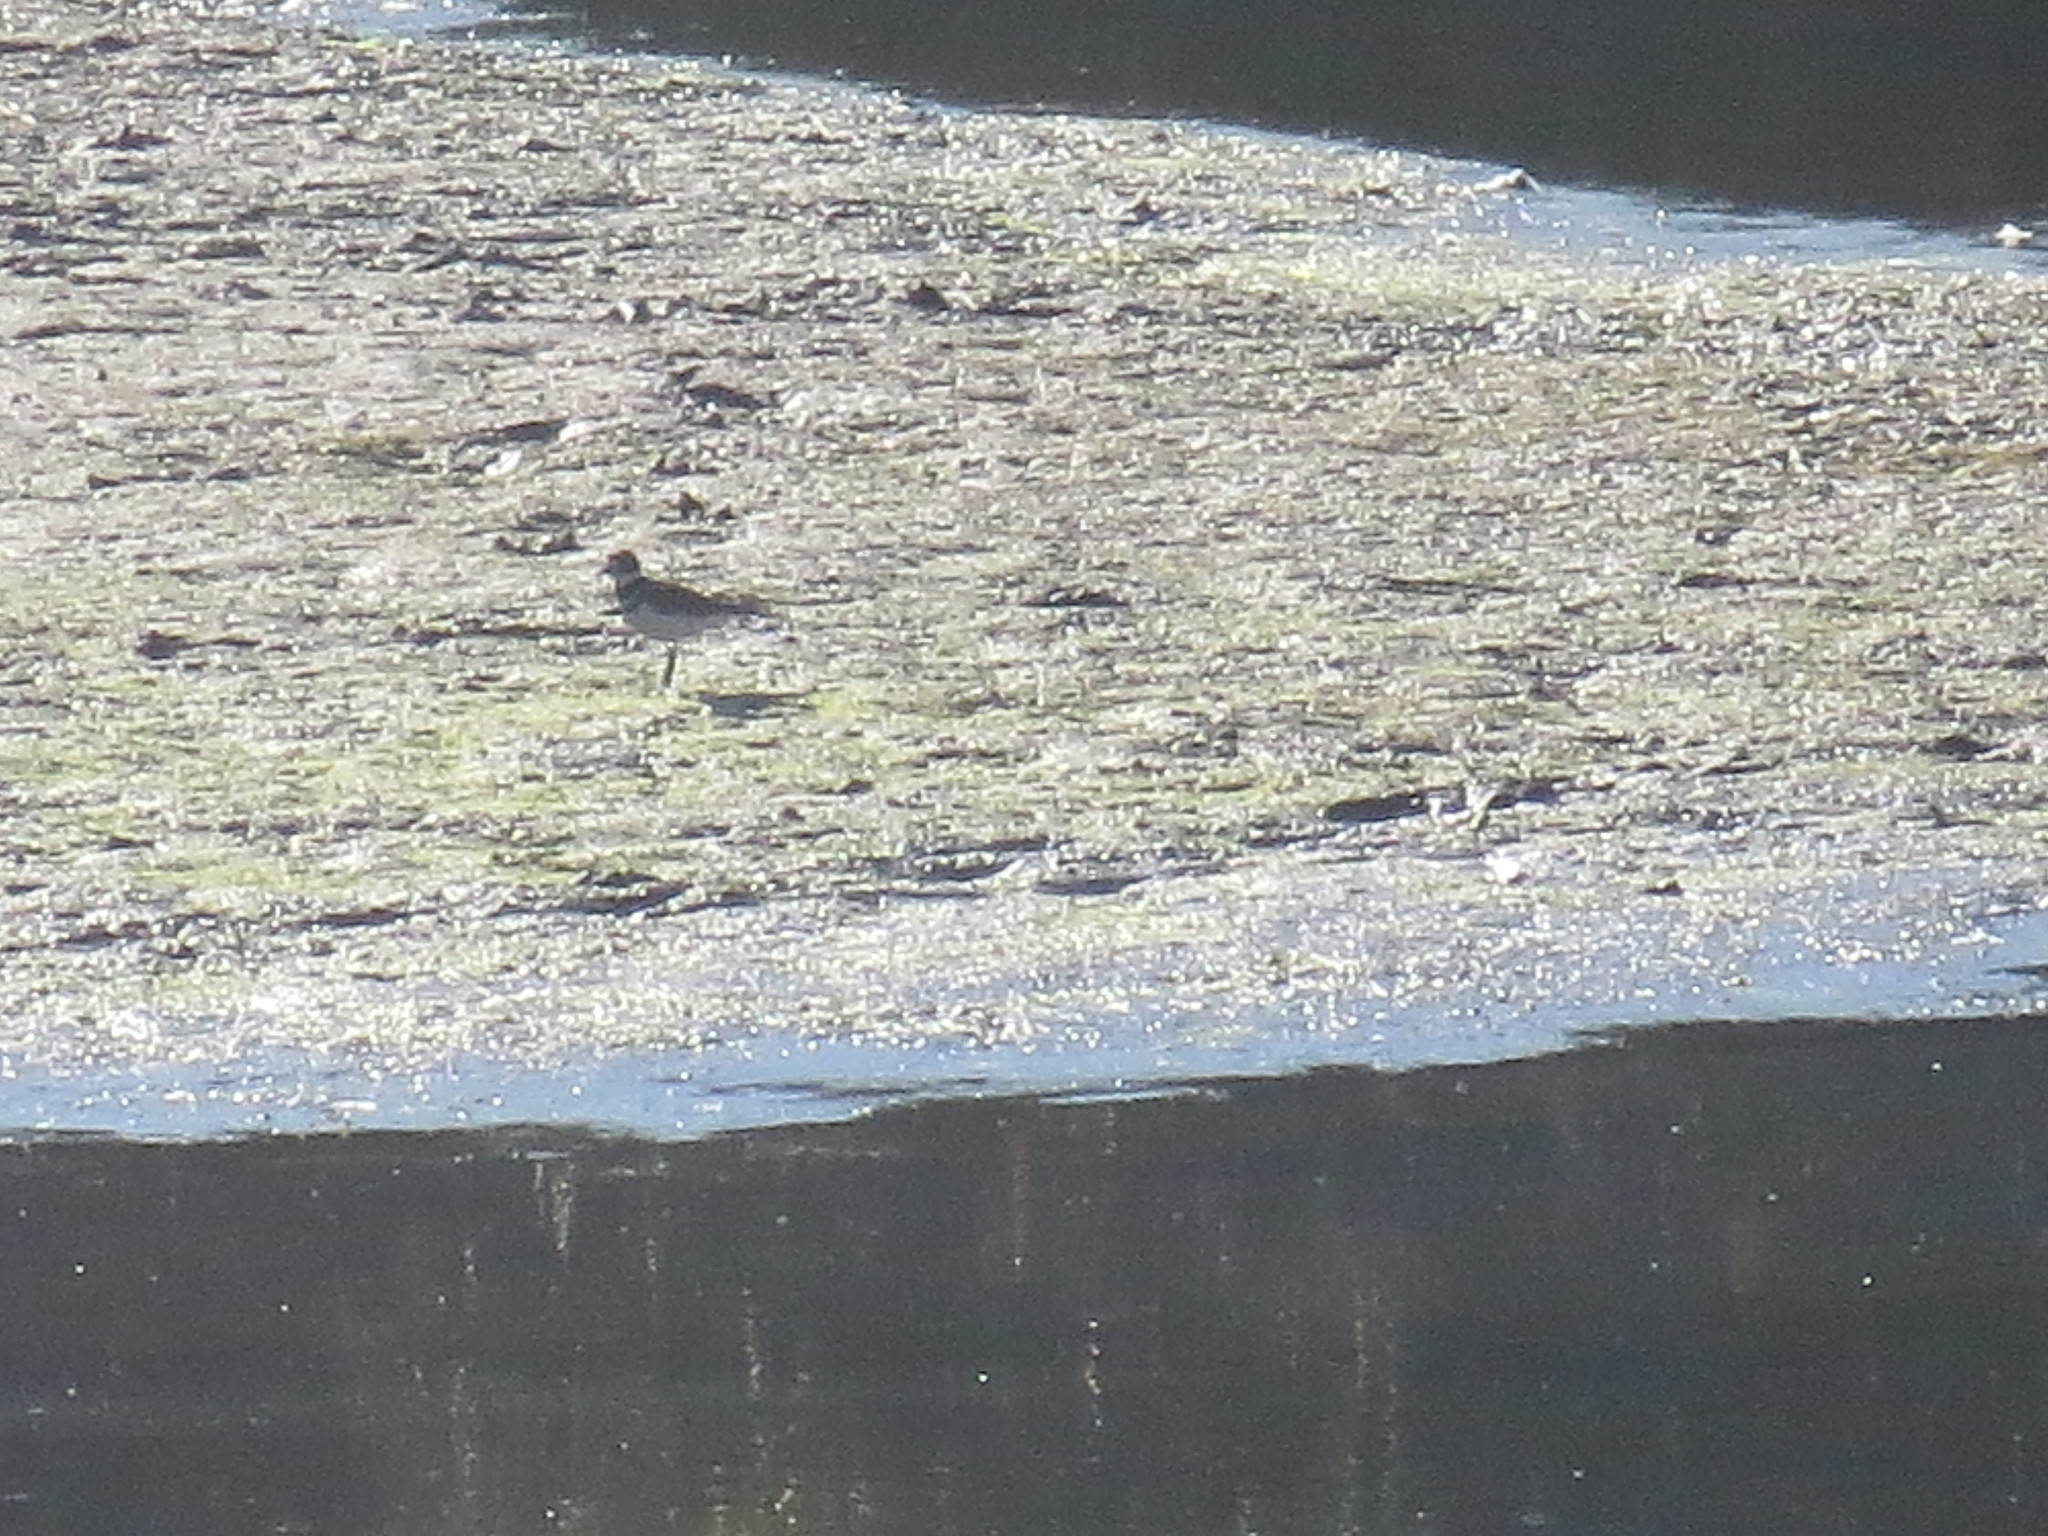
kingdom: Animalia
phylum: Chordata
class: Aves
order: Charadriiformes
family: Charadriidae
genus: Charadrius
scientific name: Charadrius vociferus
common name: Killdeer
